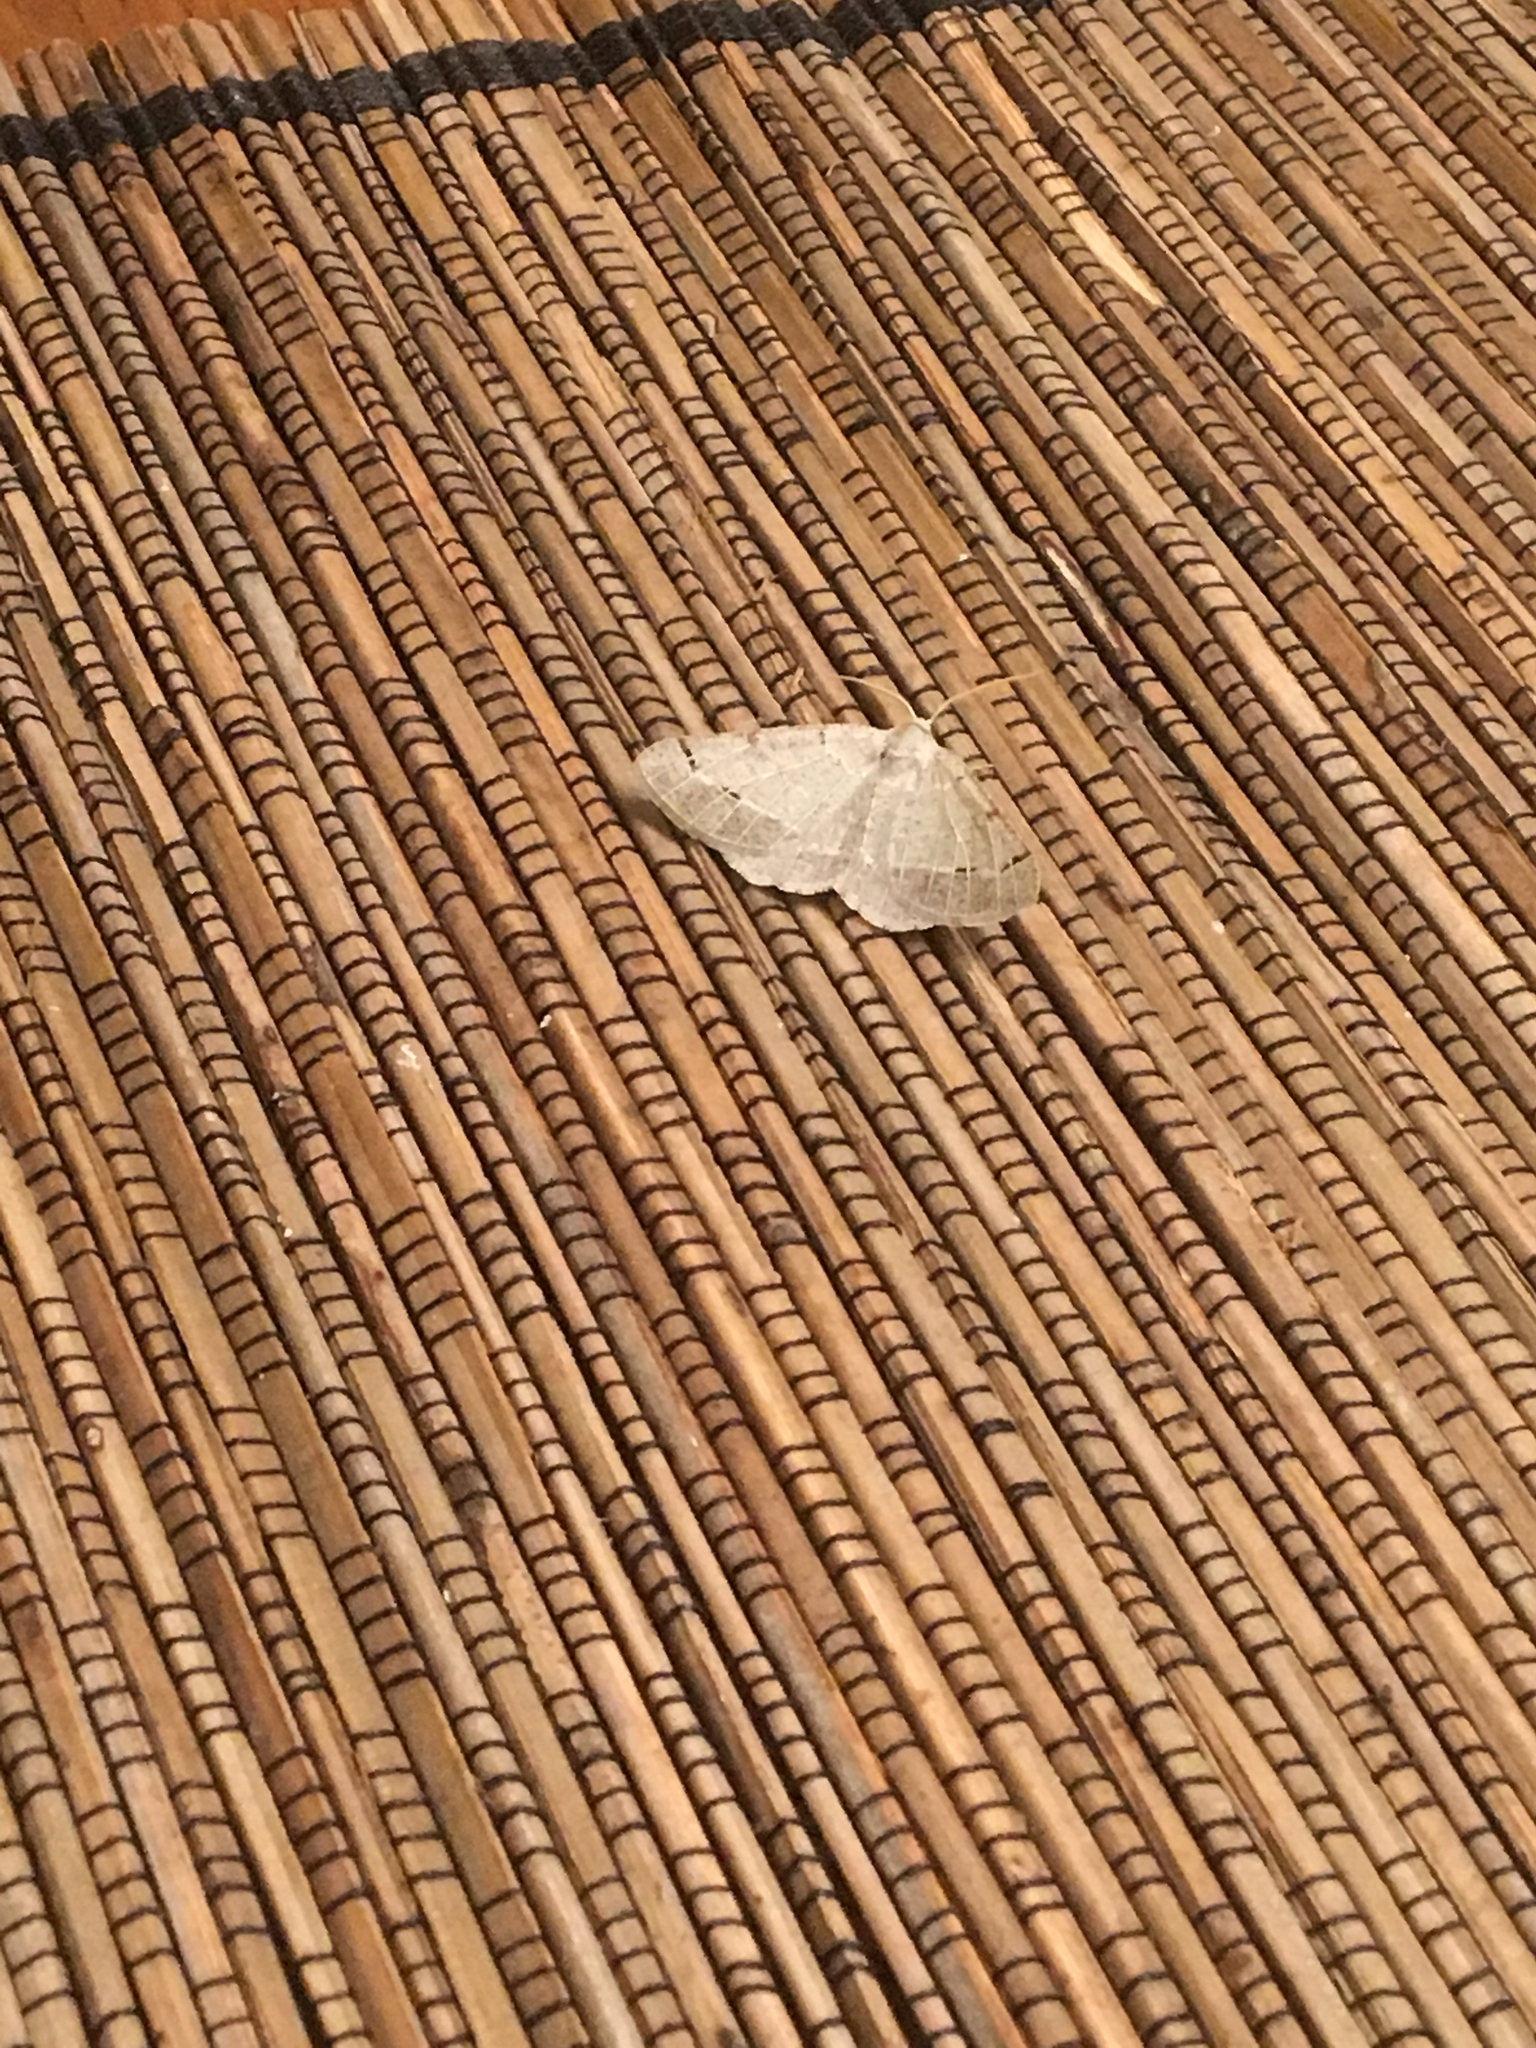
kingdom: Animalia
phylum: Arthropoda
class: Insecta
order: Lepidoptera
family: Geometridae
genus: Isturgia
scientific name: Isturgia dislocaria
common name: Pale-viened enconista
